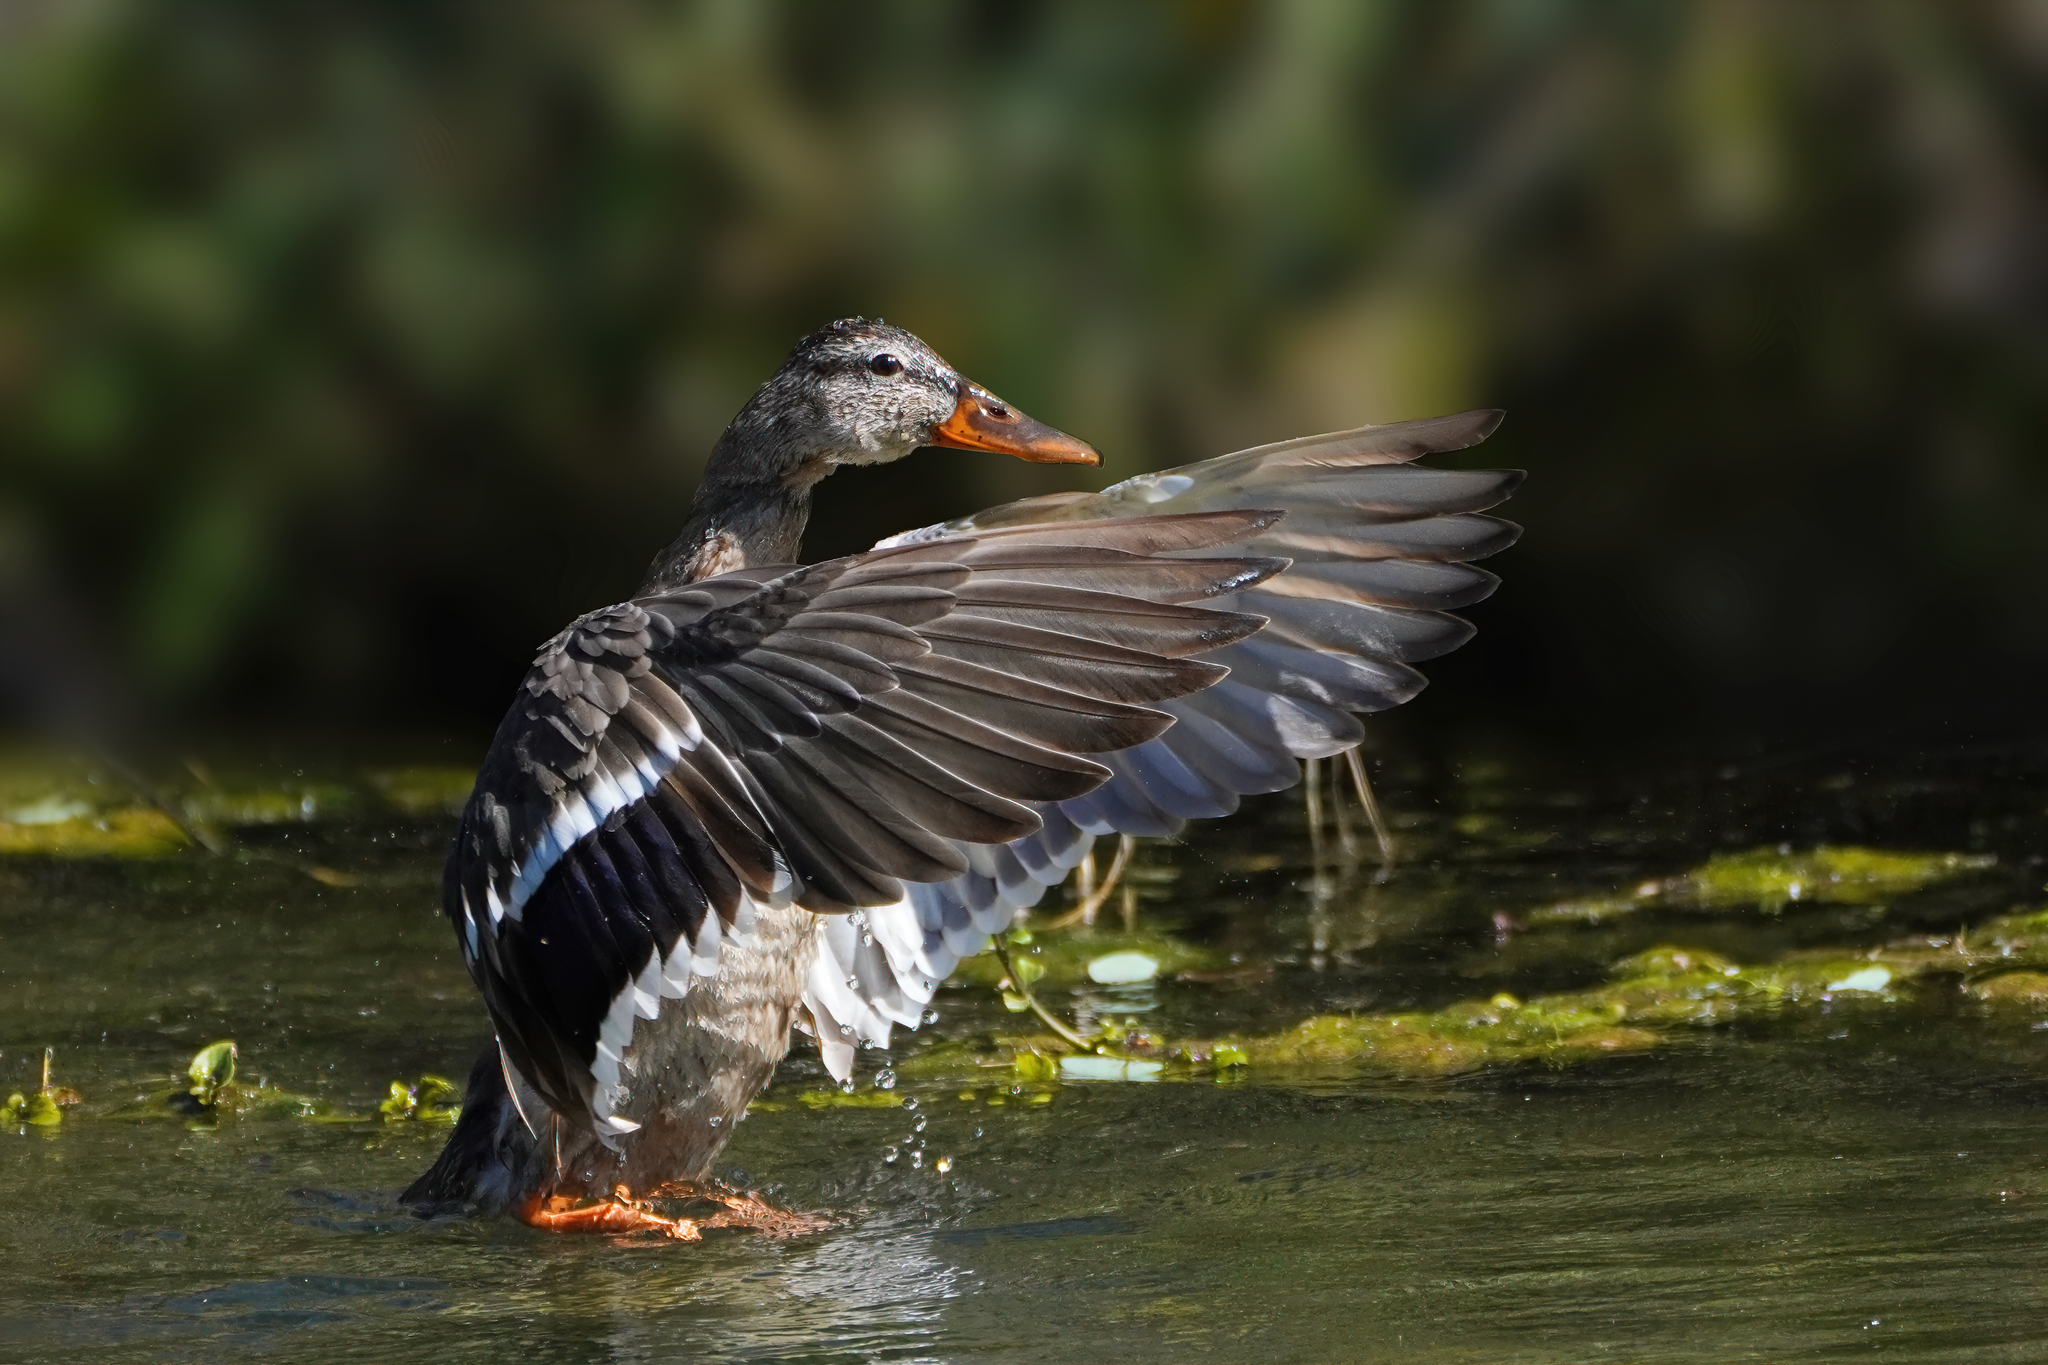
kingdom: Animalia
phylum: Chordata
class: Aves
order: Anseriformes
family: Anatidae
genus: Anas
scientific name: Anas platyrhynchos
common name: Mallard
